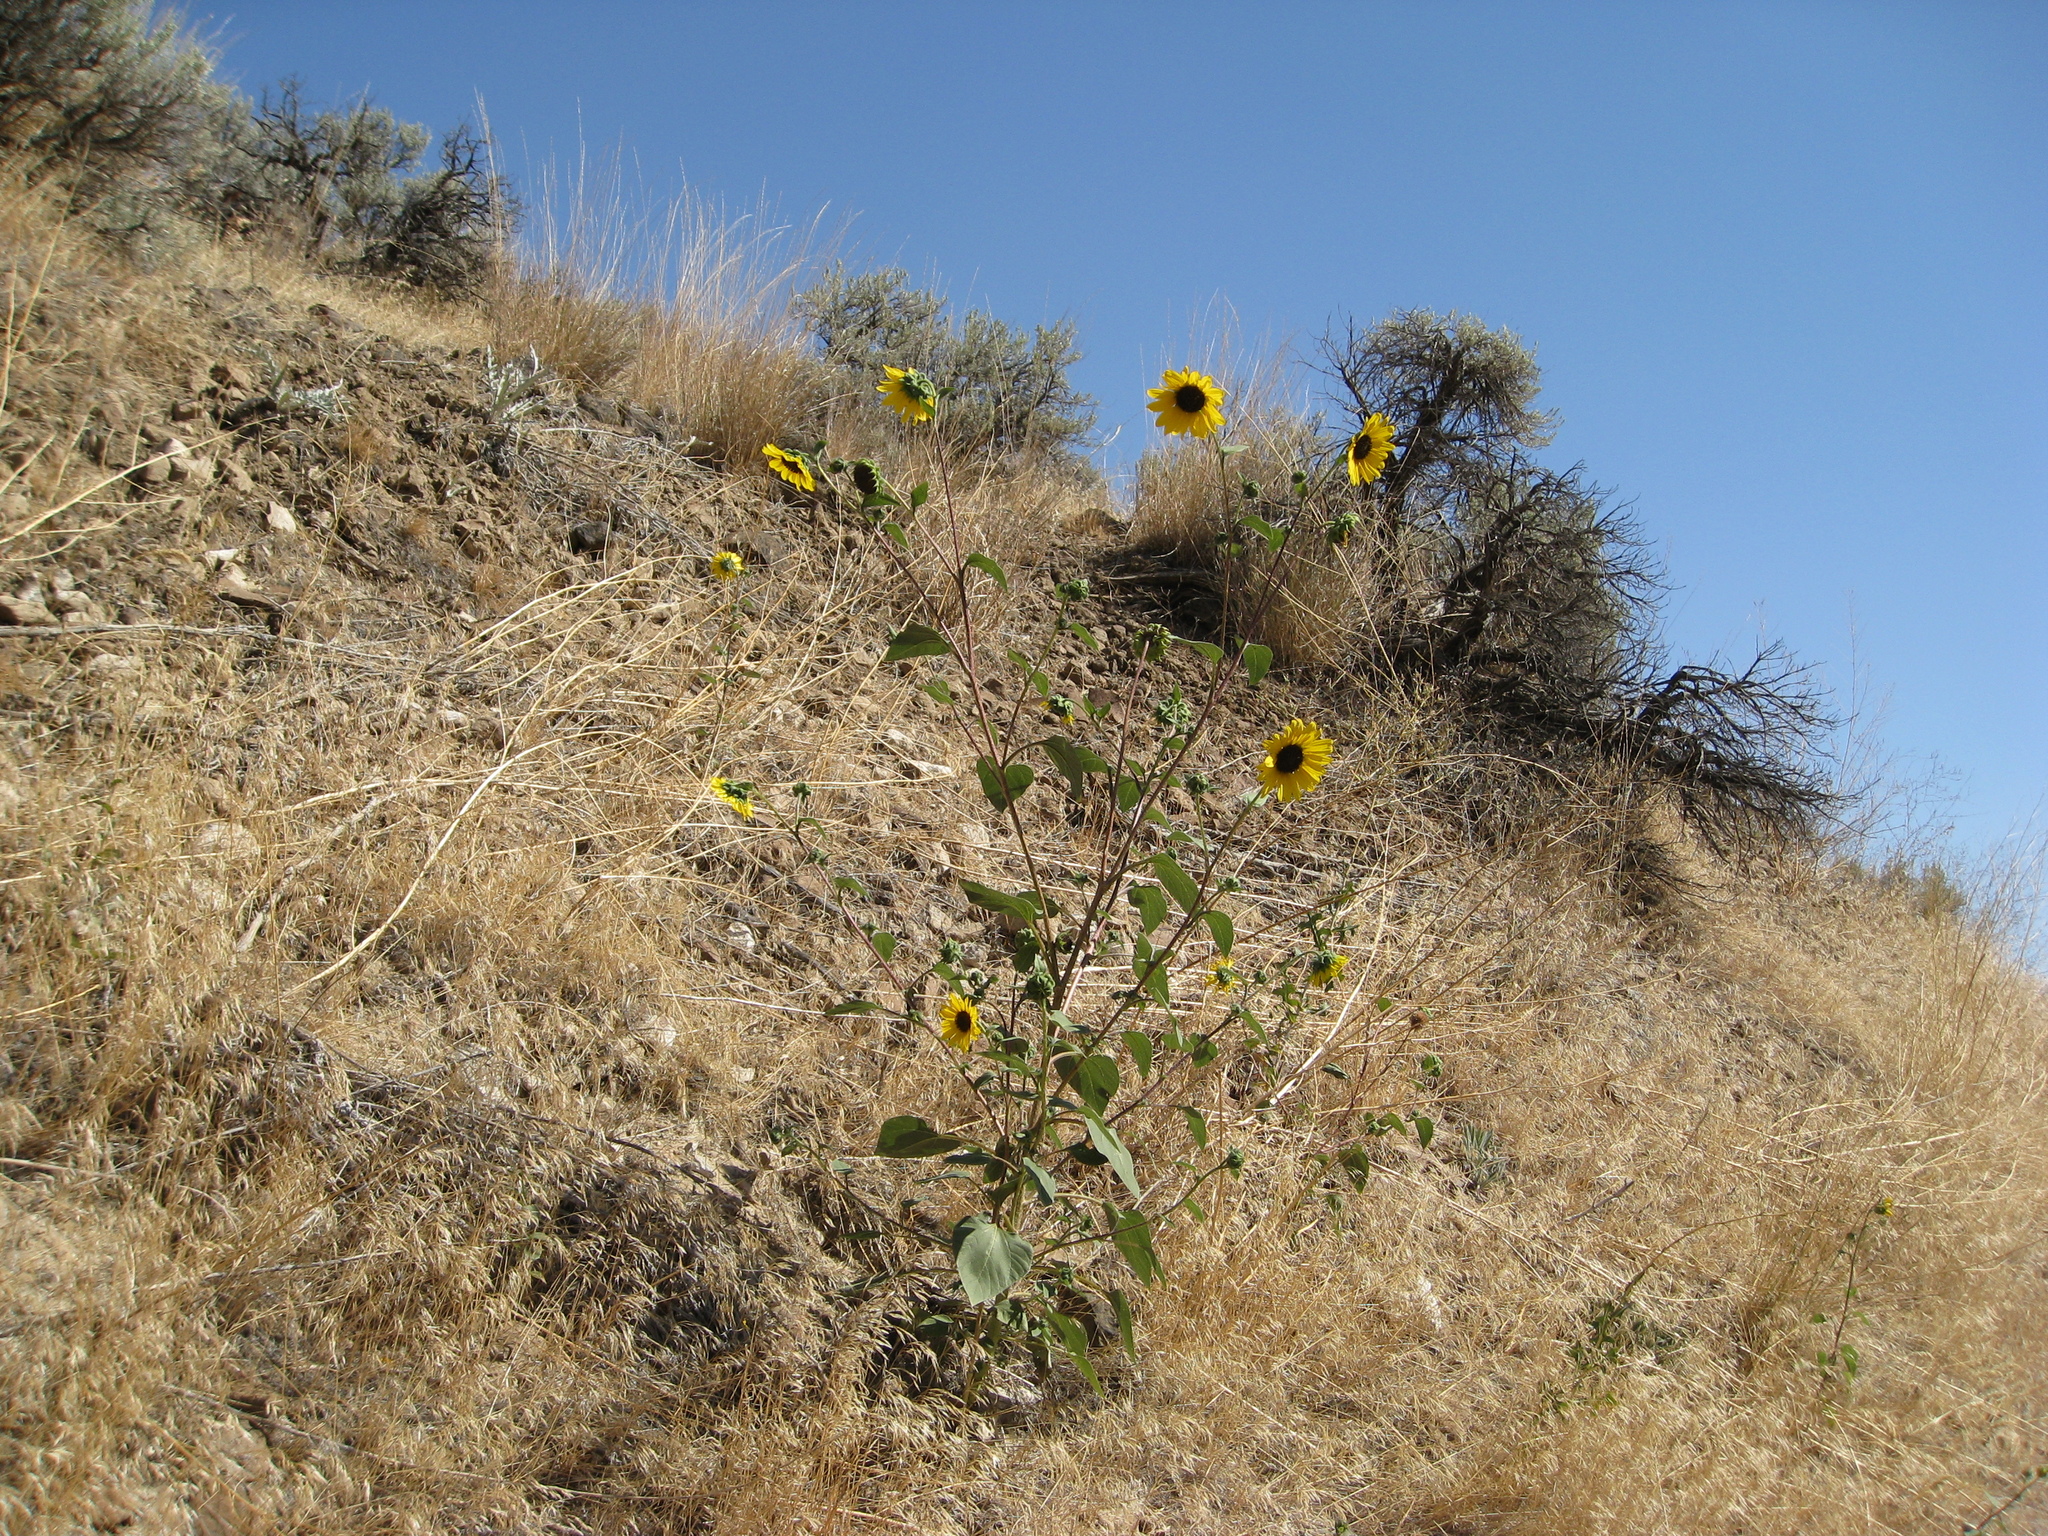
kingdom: Plantae
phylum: Tracheophyta
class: Magnoliopsida
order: Asterales
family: Asteraceae
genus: Helianthus
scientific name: Helianthus annuus
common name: Sunflower
